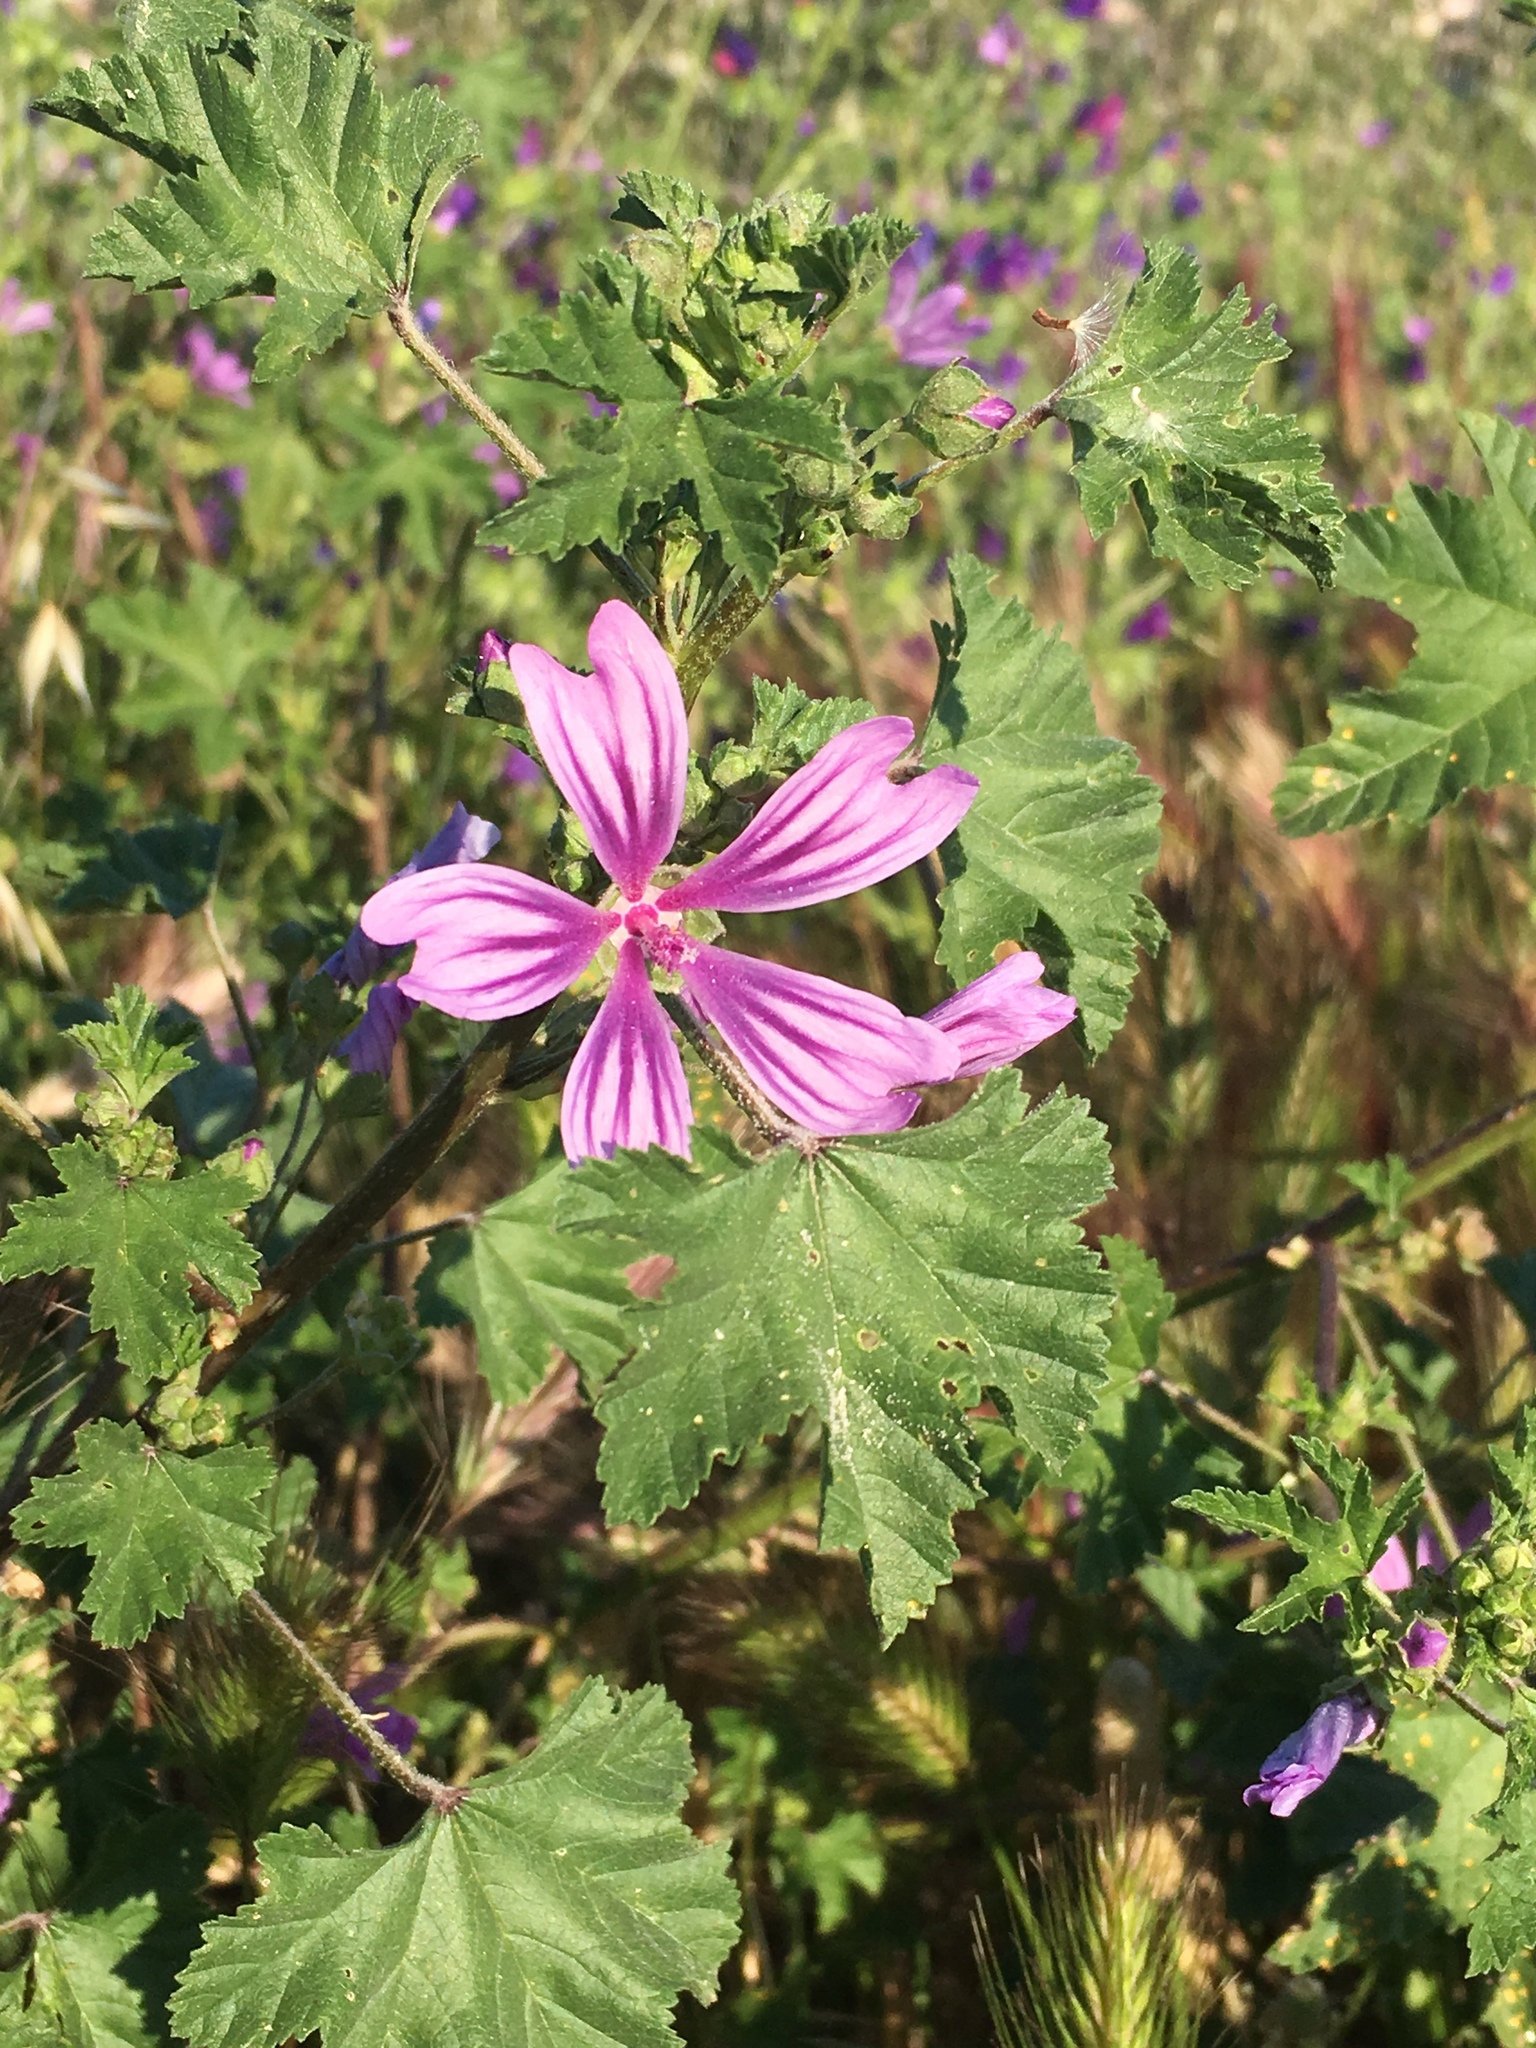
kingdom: Plantae
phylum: Tracheophyta
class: Magnoliopsida
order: Malvales
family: Malvaceae
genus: Malva
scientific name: Malva sylvestris
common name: Common mallow
